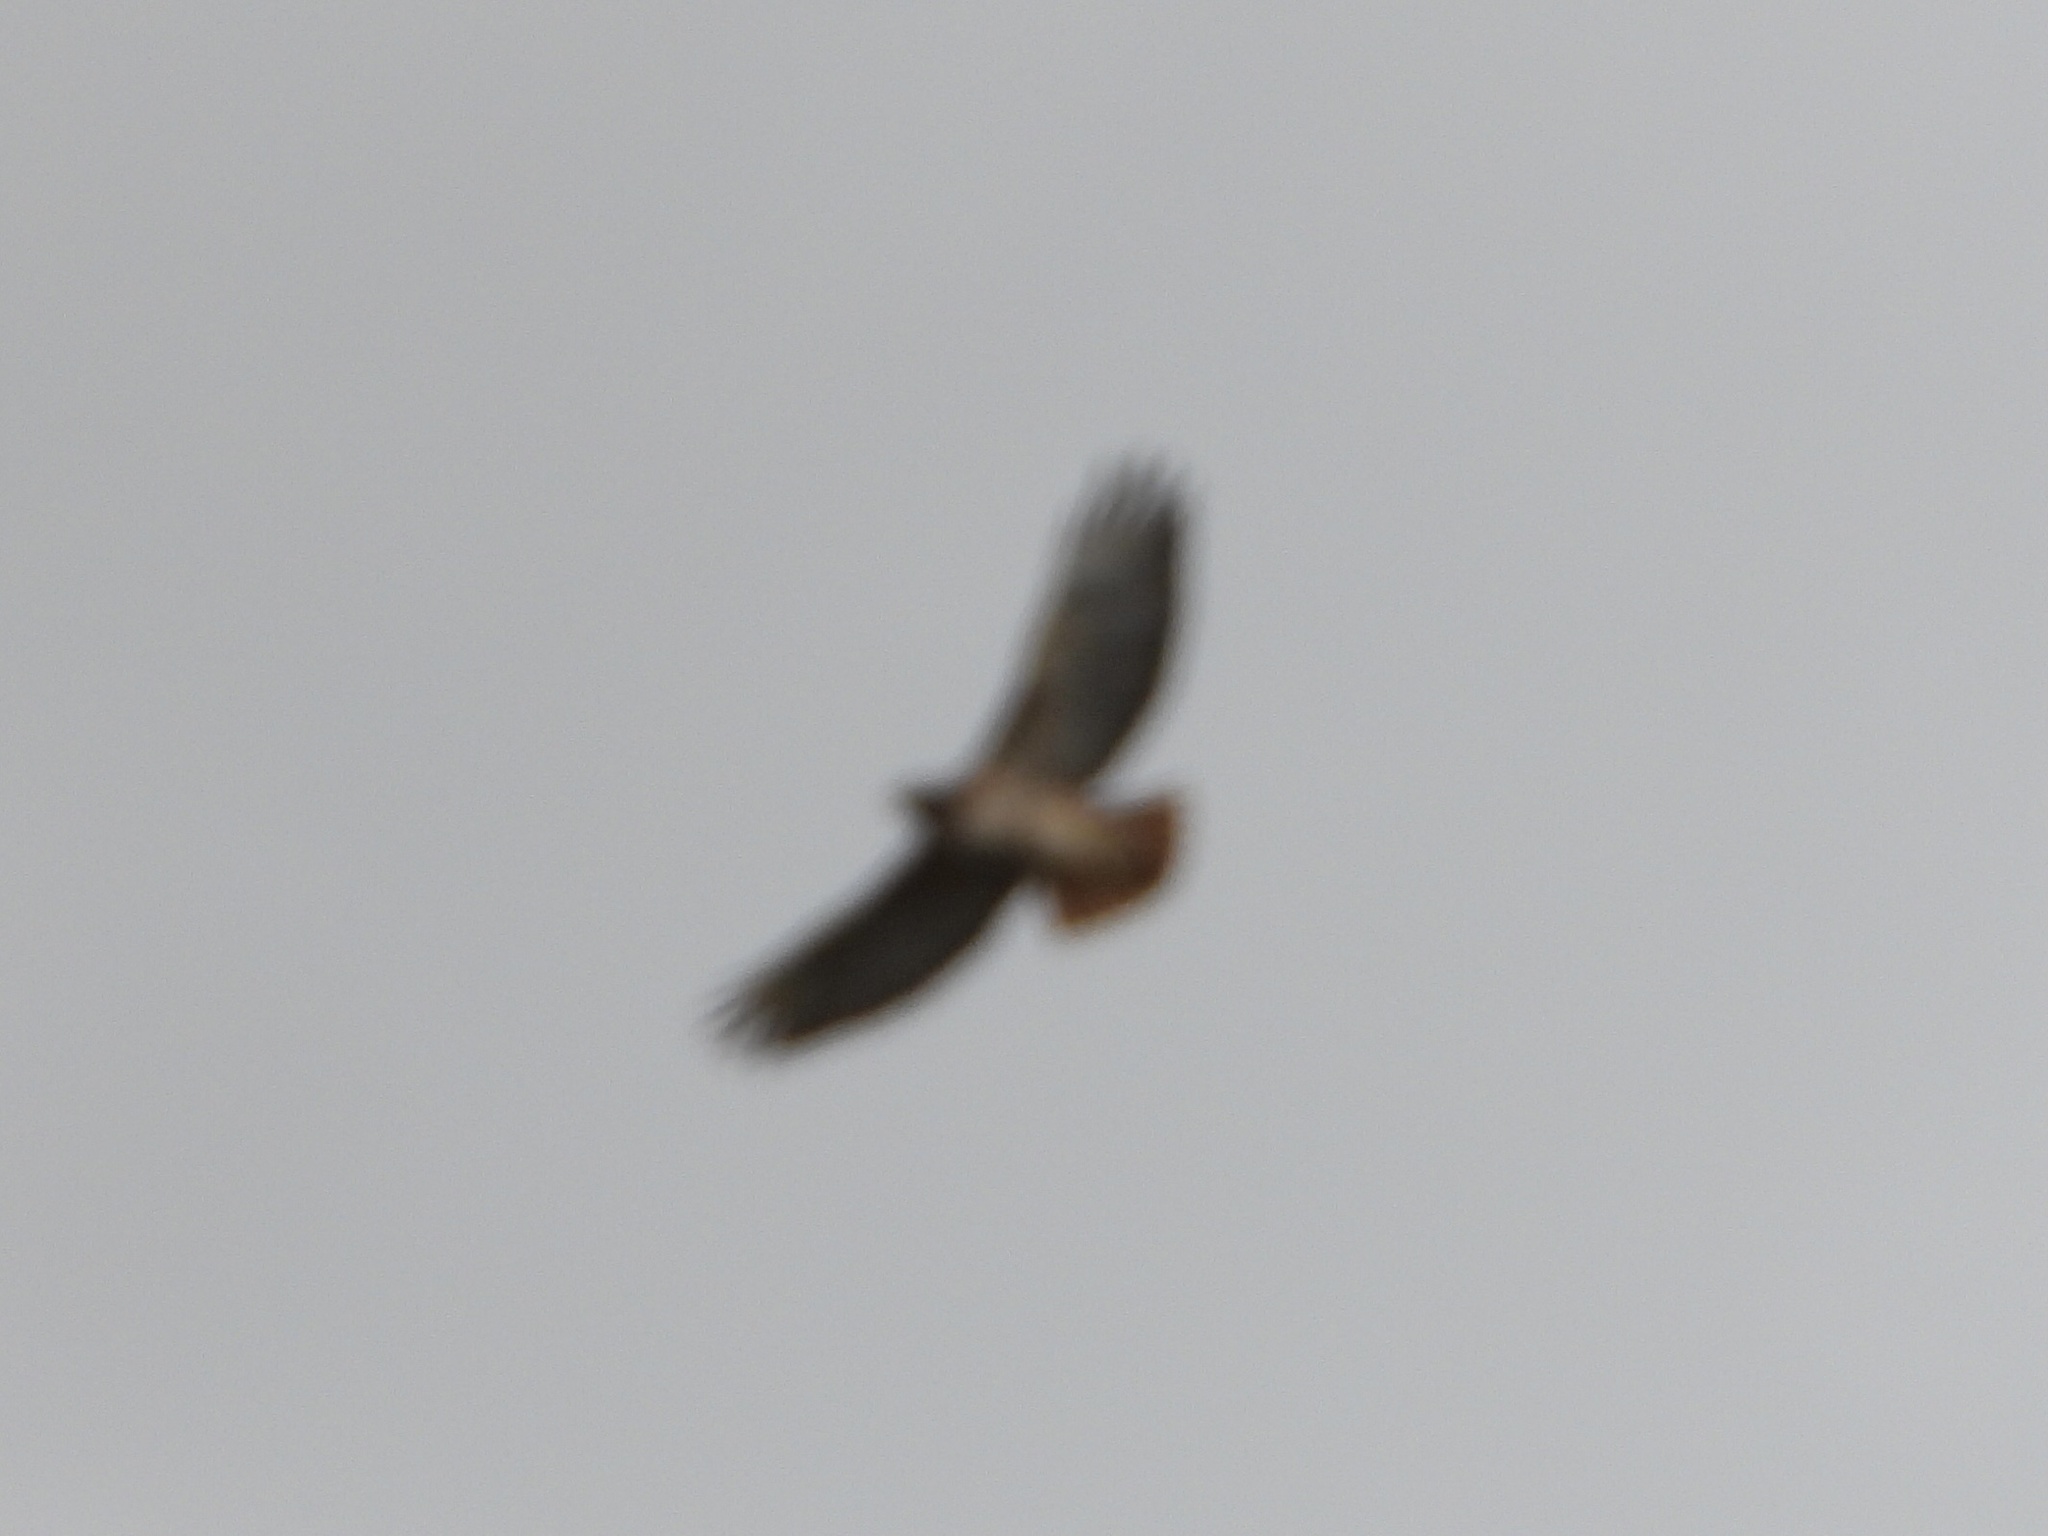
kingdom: Animalia
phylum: Chordata
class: Aves
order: Accipitriformes
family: Accipitridae
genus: Buteo
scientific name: Buteo jamaicensis
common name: Red-tailed hawk
